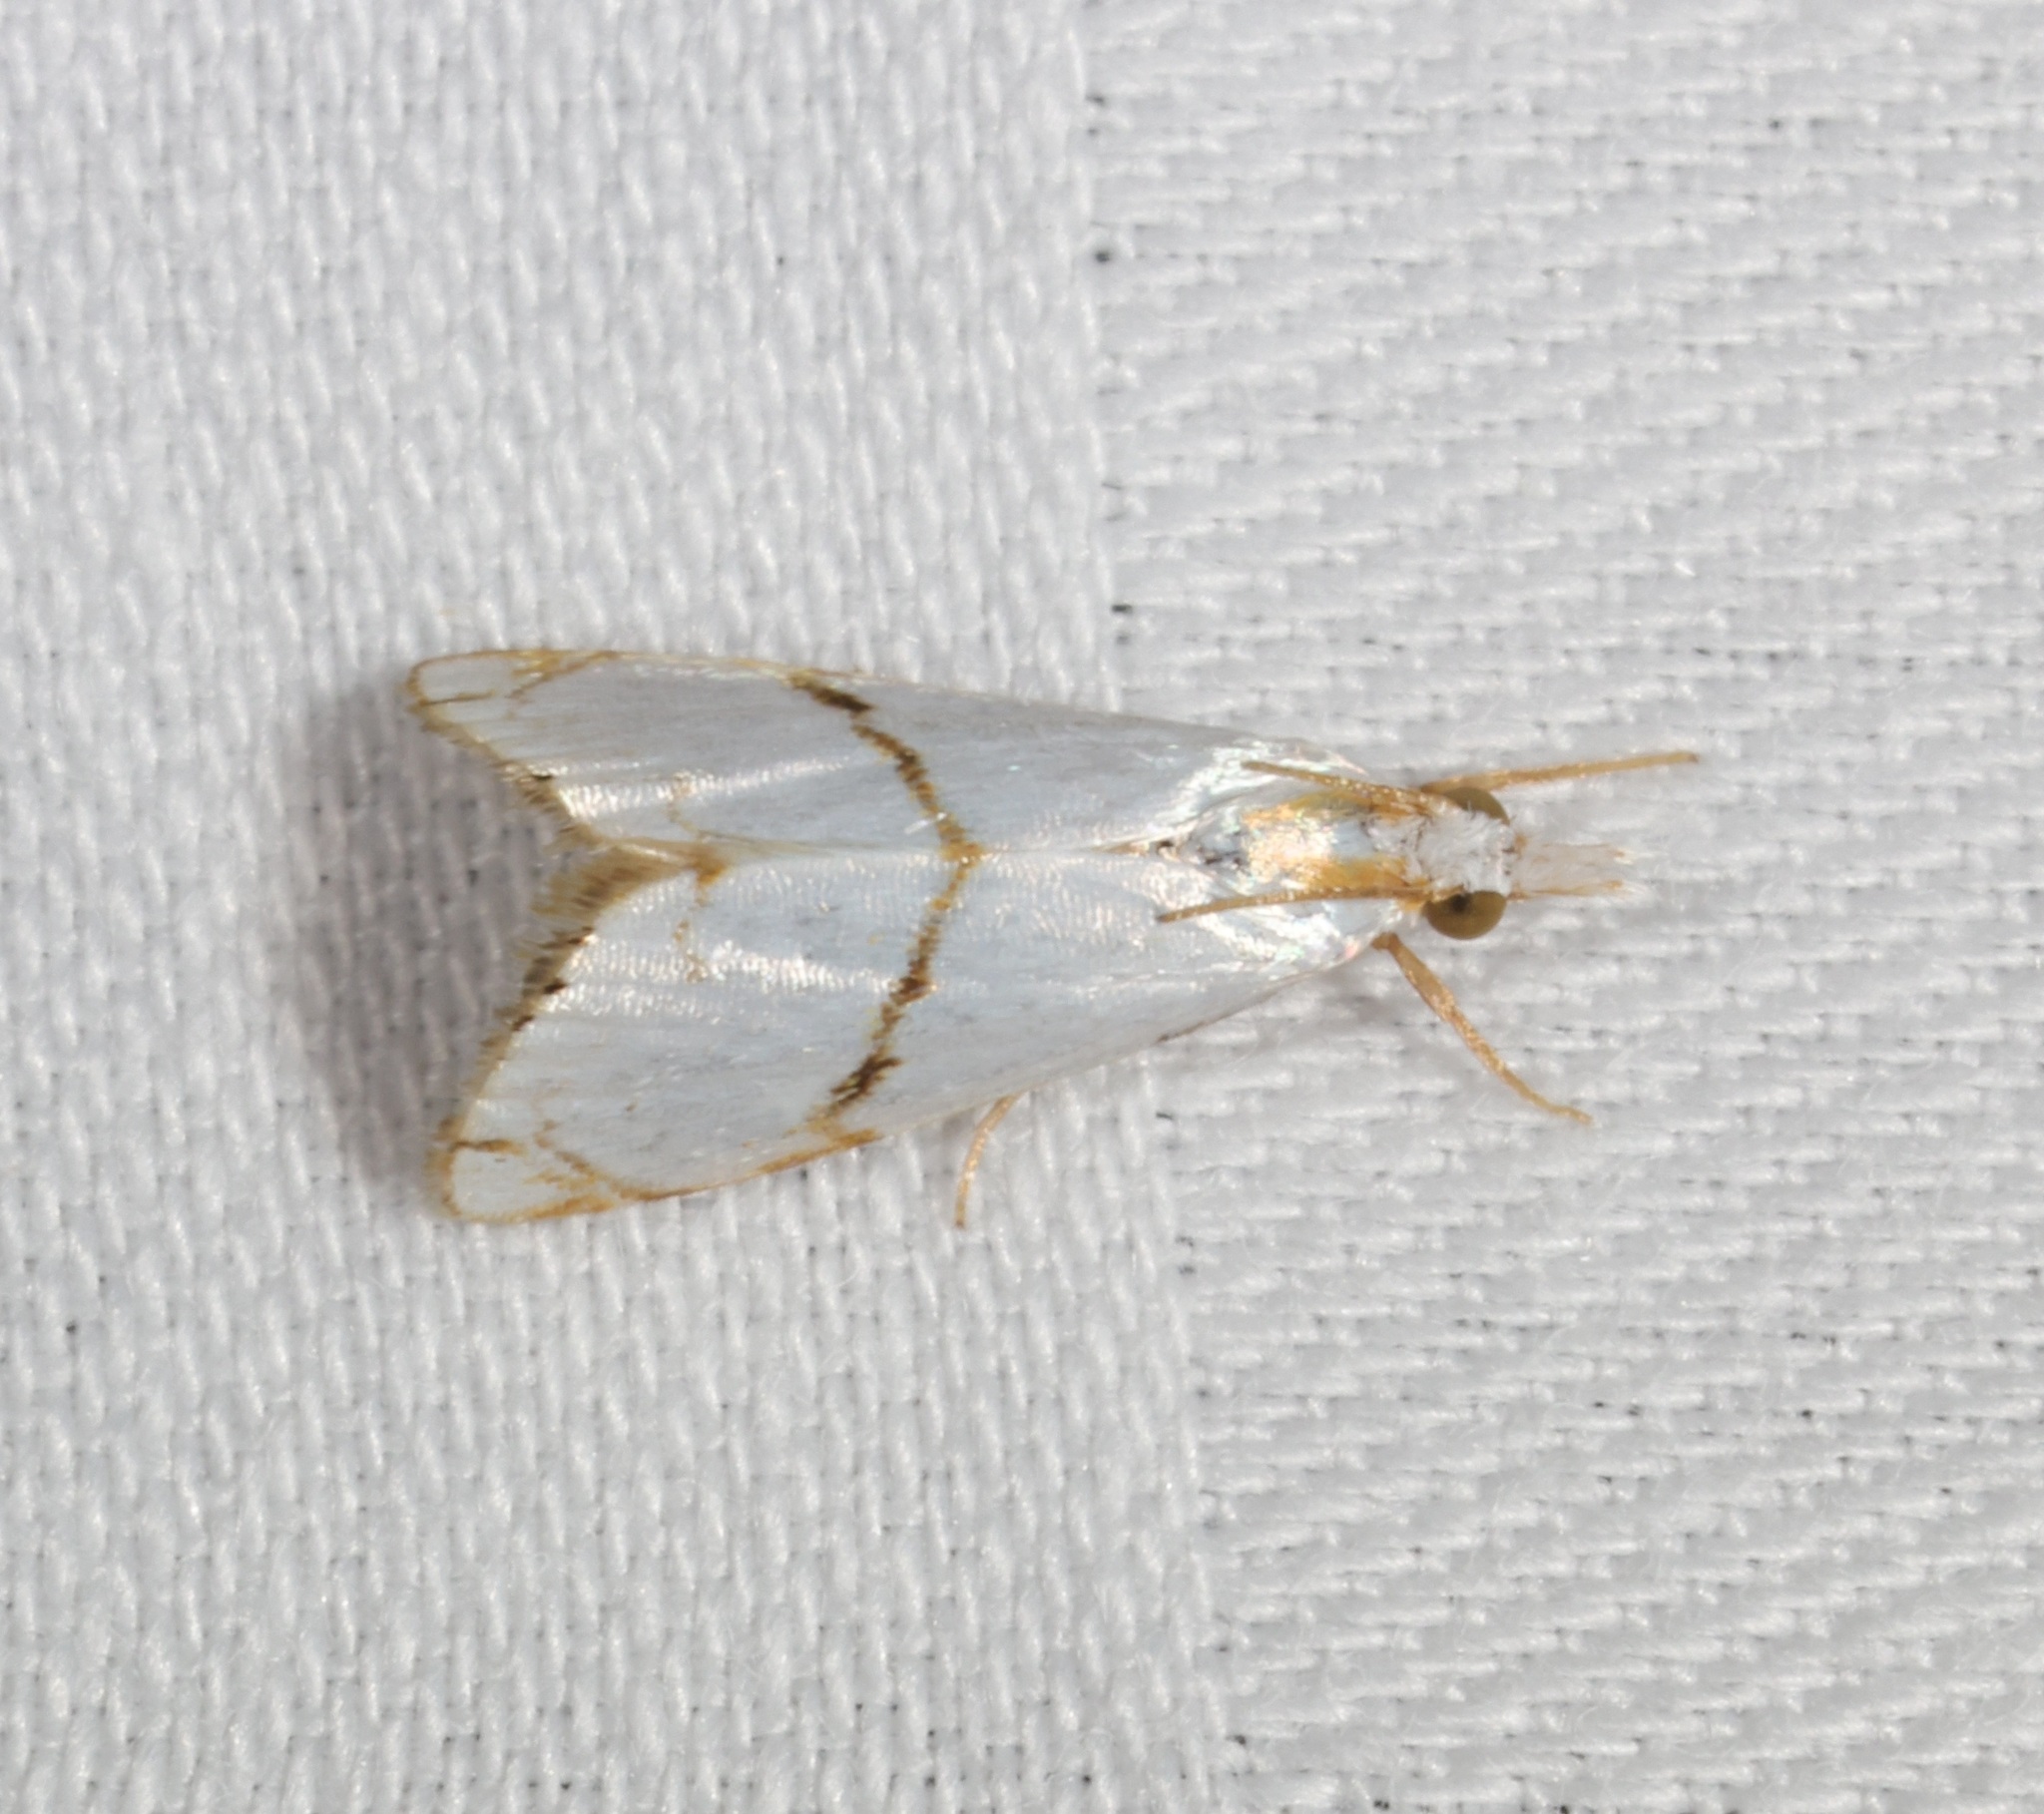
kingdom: Animalia
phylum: Arthropoda
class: Insecta
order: Lepidoptera
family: Crambidae
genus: Pseudargyria
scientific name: Pseudargyria interruptella
